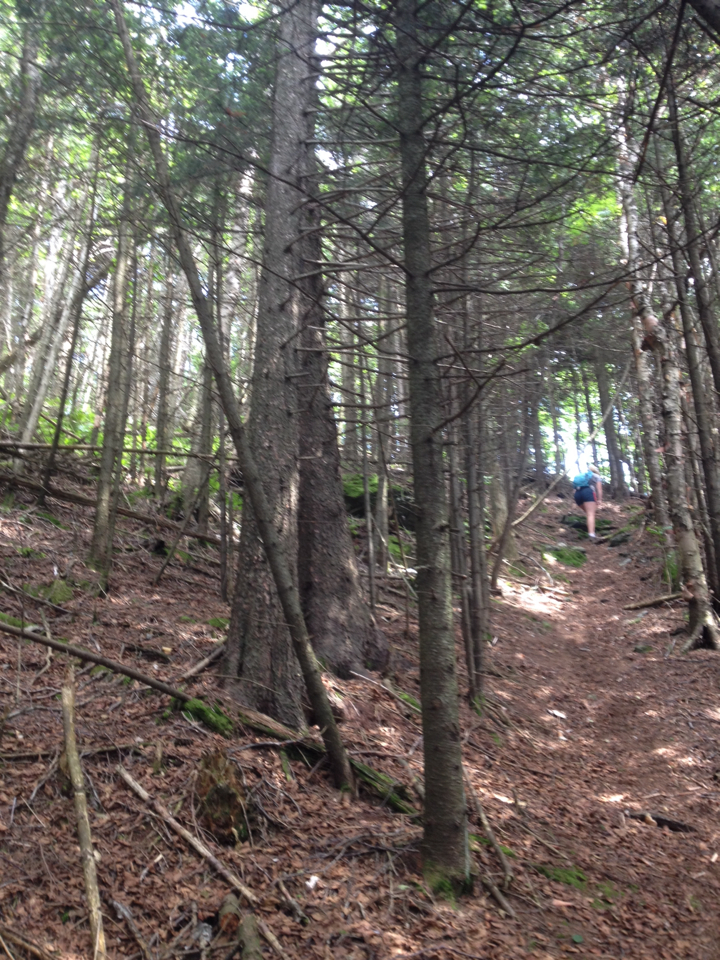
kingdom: Plantae
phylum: Tracheophyta
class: Pinopsida
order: Pinales
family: Pinaceae
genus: Abies
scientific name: Abies balsamea
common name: Balsam fir
